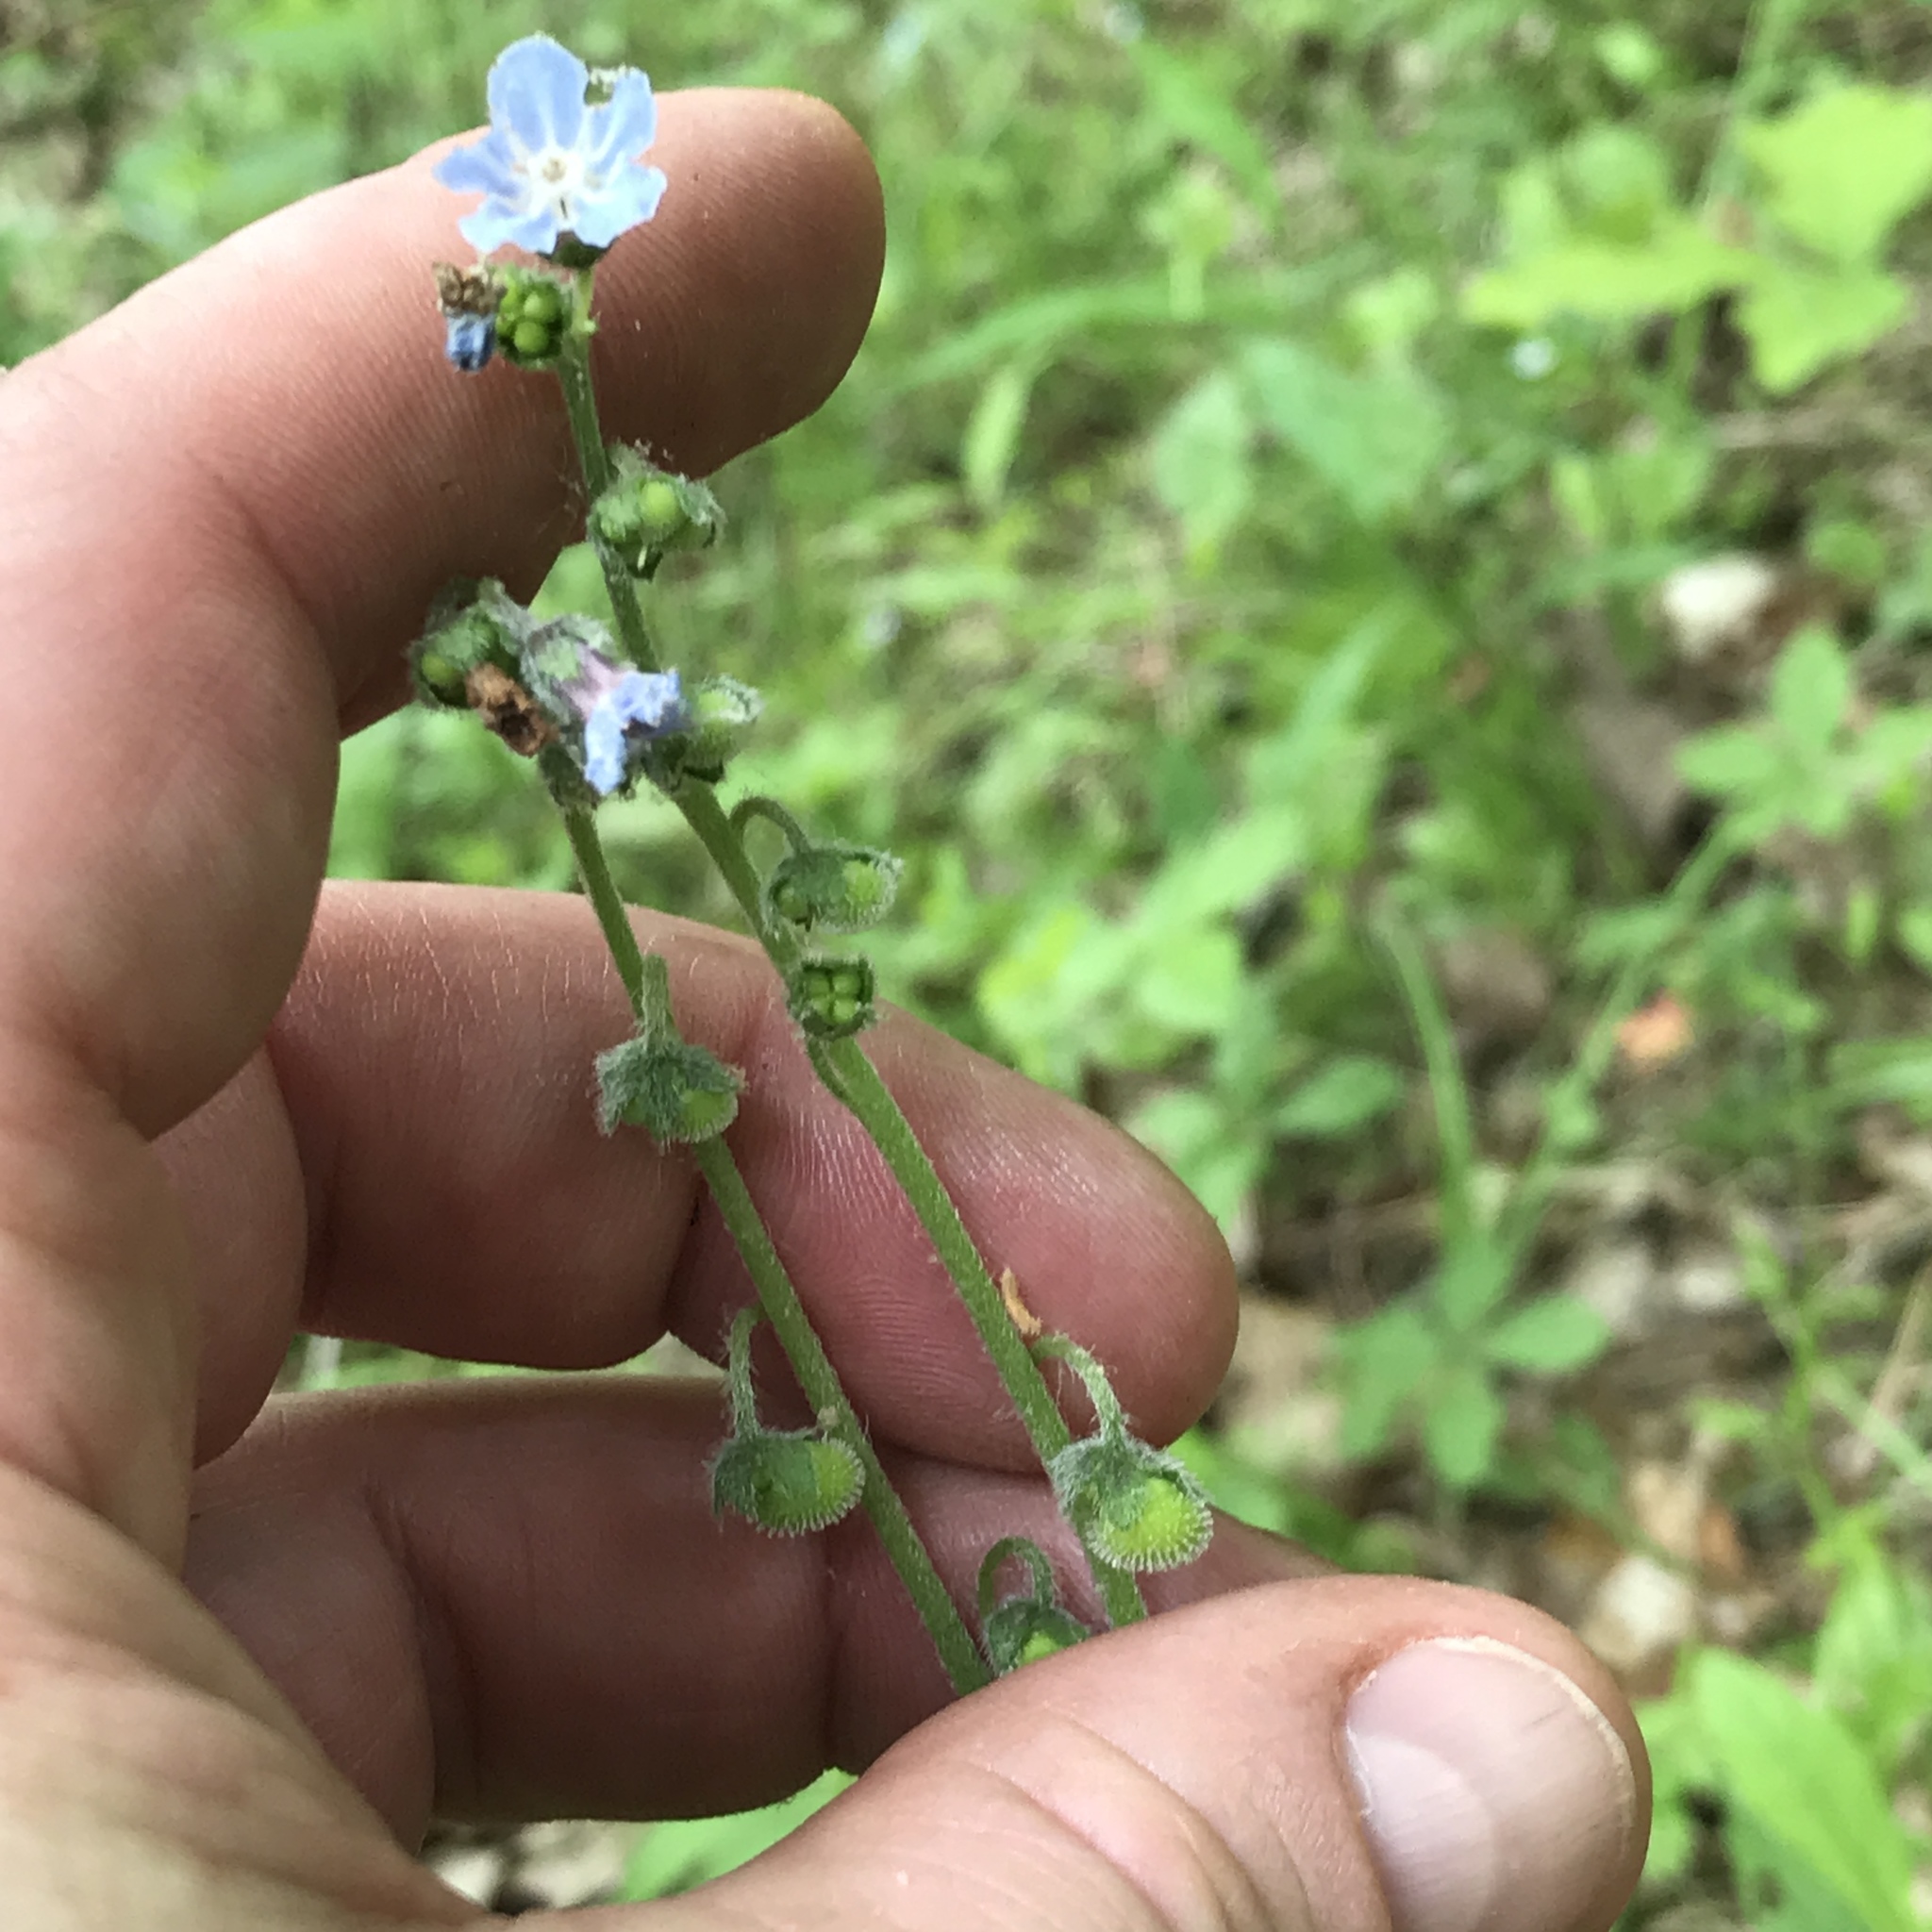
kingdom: Plantae
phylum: Tracheophyta
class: Magnoliopsida
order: Boraginales
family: Boraginaceae
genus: Andersonglossum
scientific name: Andersonglossum virginianum
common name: Wild comfrey
